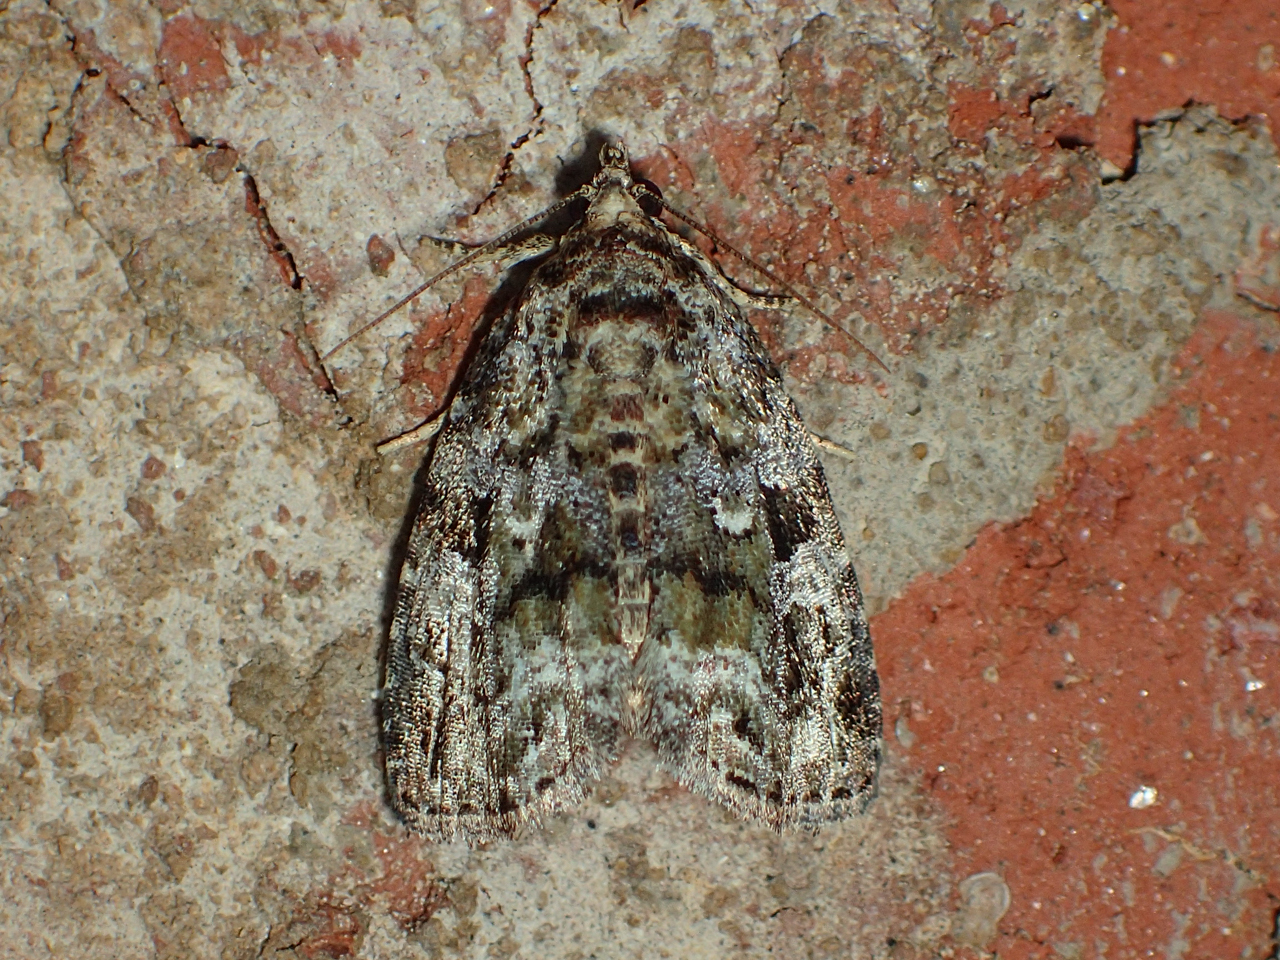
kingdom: Animalia
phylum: Arthropoda
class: Insecta
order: Lepidoptera
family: Noctuidae
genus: Protodeltote
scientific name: Protodeltote muscosula
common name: Large mossy glyph
